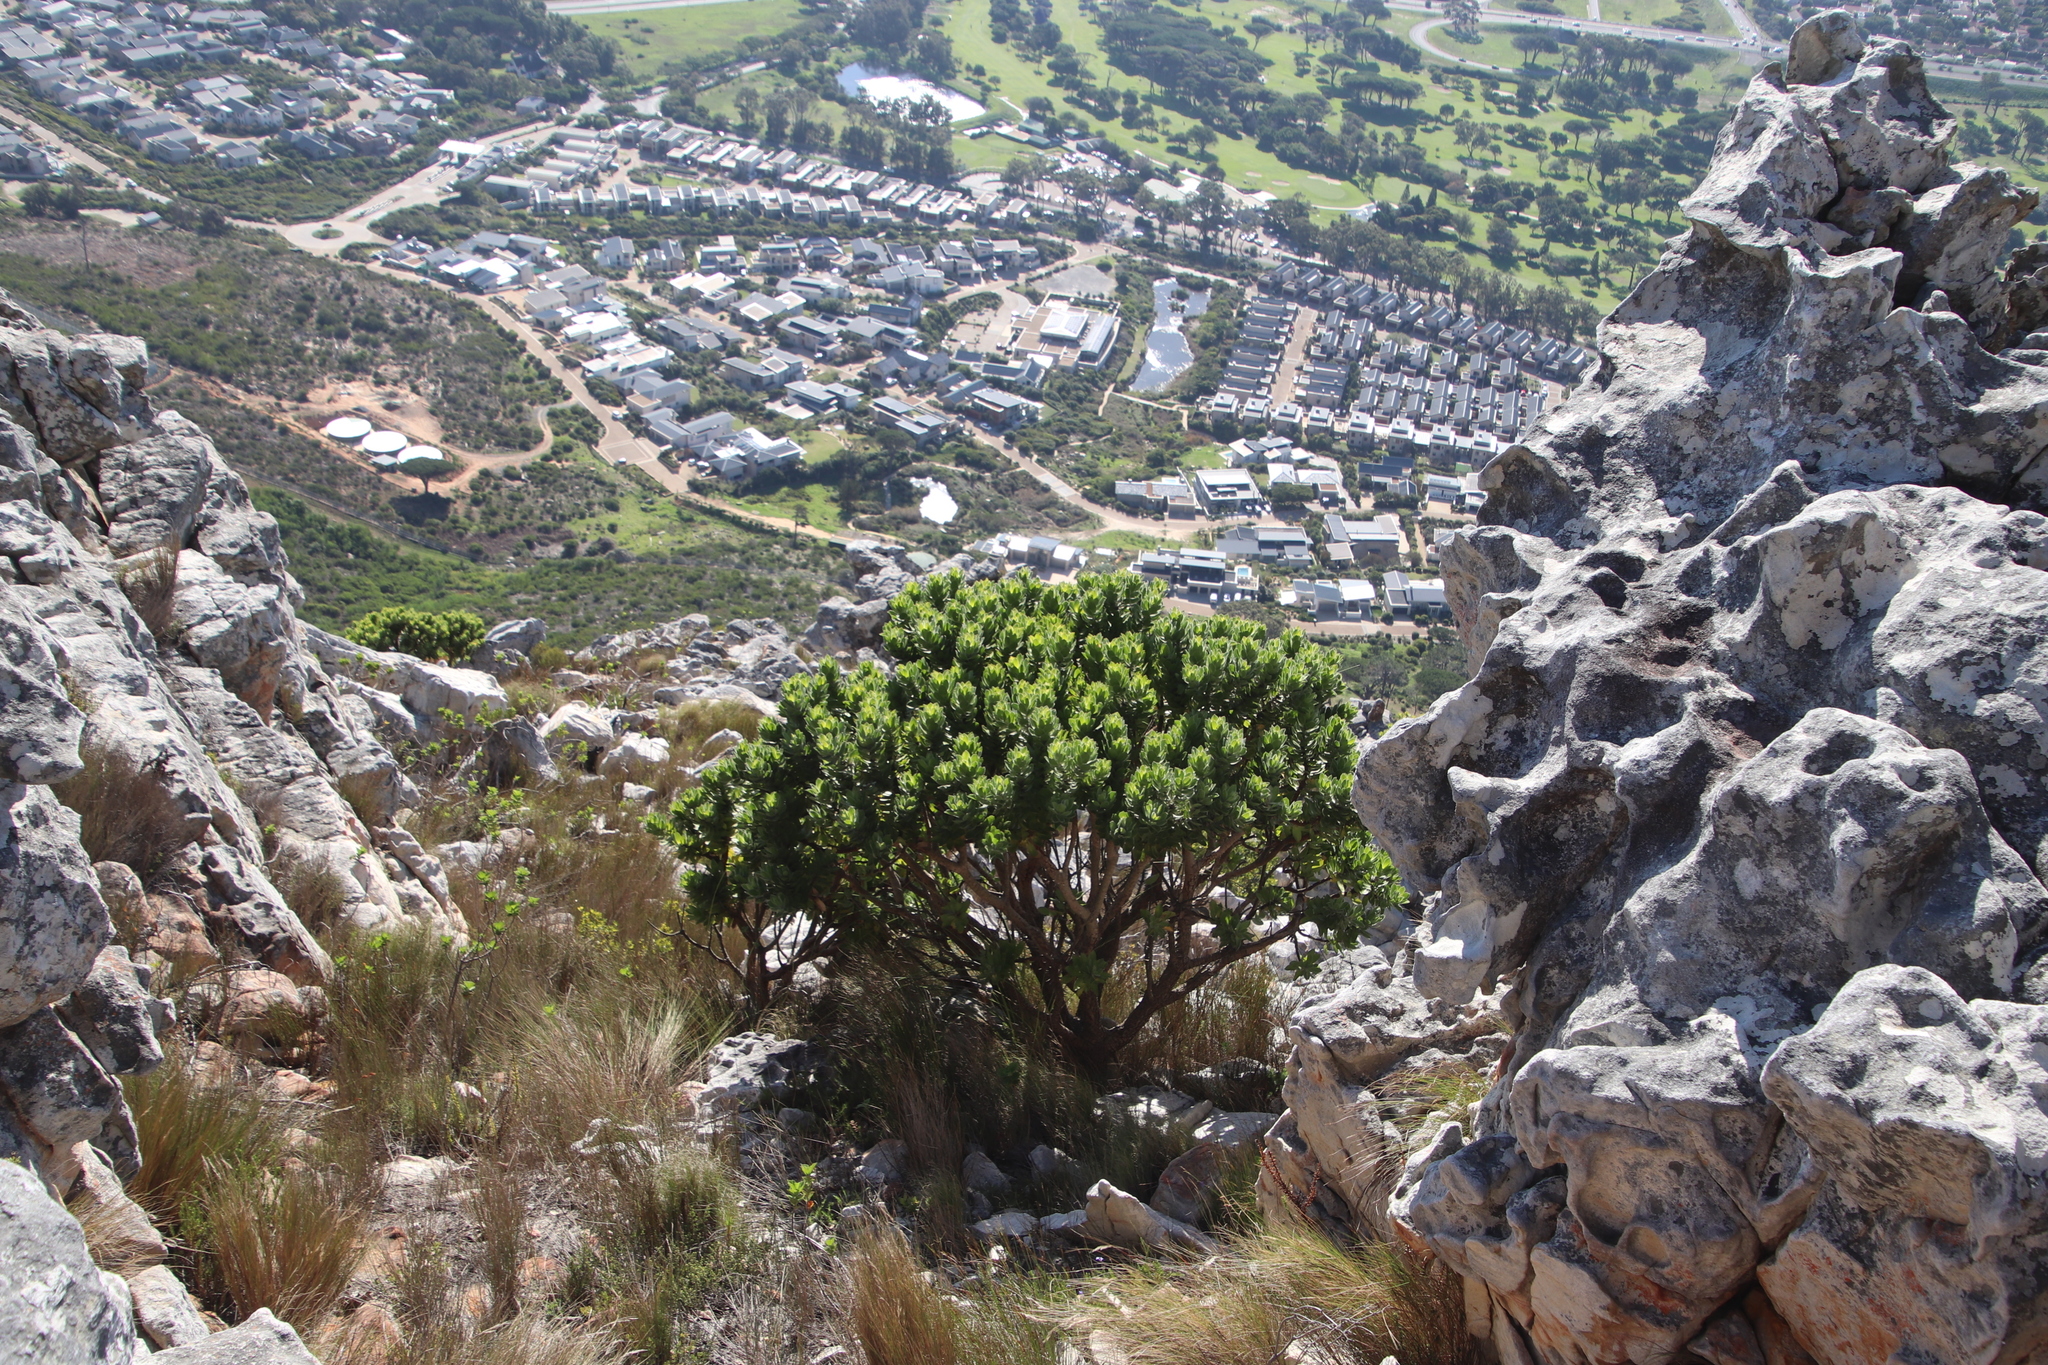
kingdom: Plantae
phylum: Tracheophyta
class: Magnoliopsida
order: Proteales
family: Proteaceae
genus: Leucospermum
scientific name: Leucospermum conocarpodendron
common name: Tree pincushion
